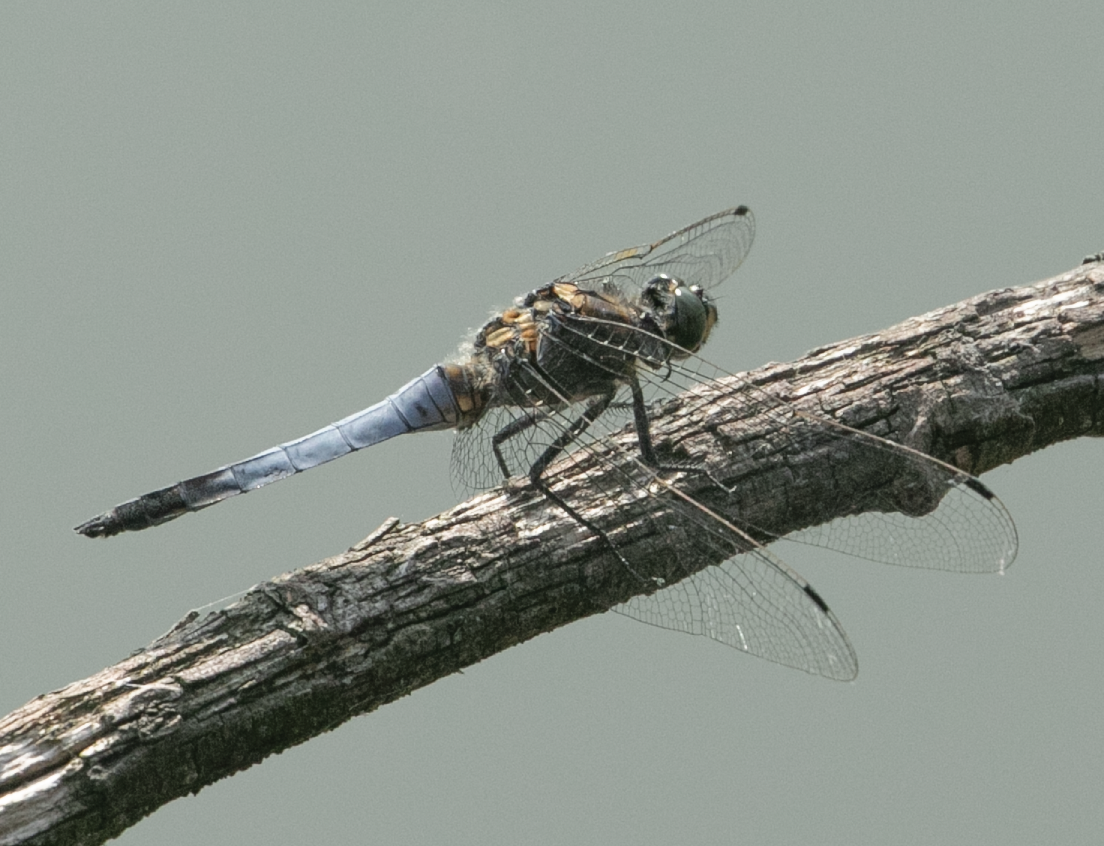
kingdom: Animalia
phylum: Arthropoda
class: Insecta
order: Odonata
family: Libellulidae
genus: Orthetrum
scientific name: Orthetrum cancellatum
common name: Black-tailed skimmer
